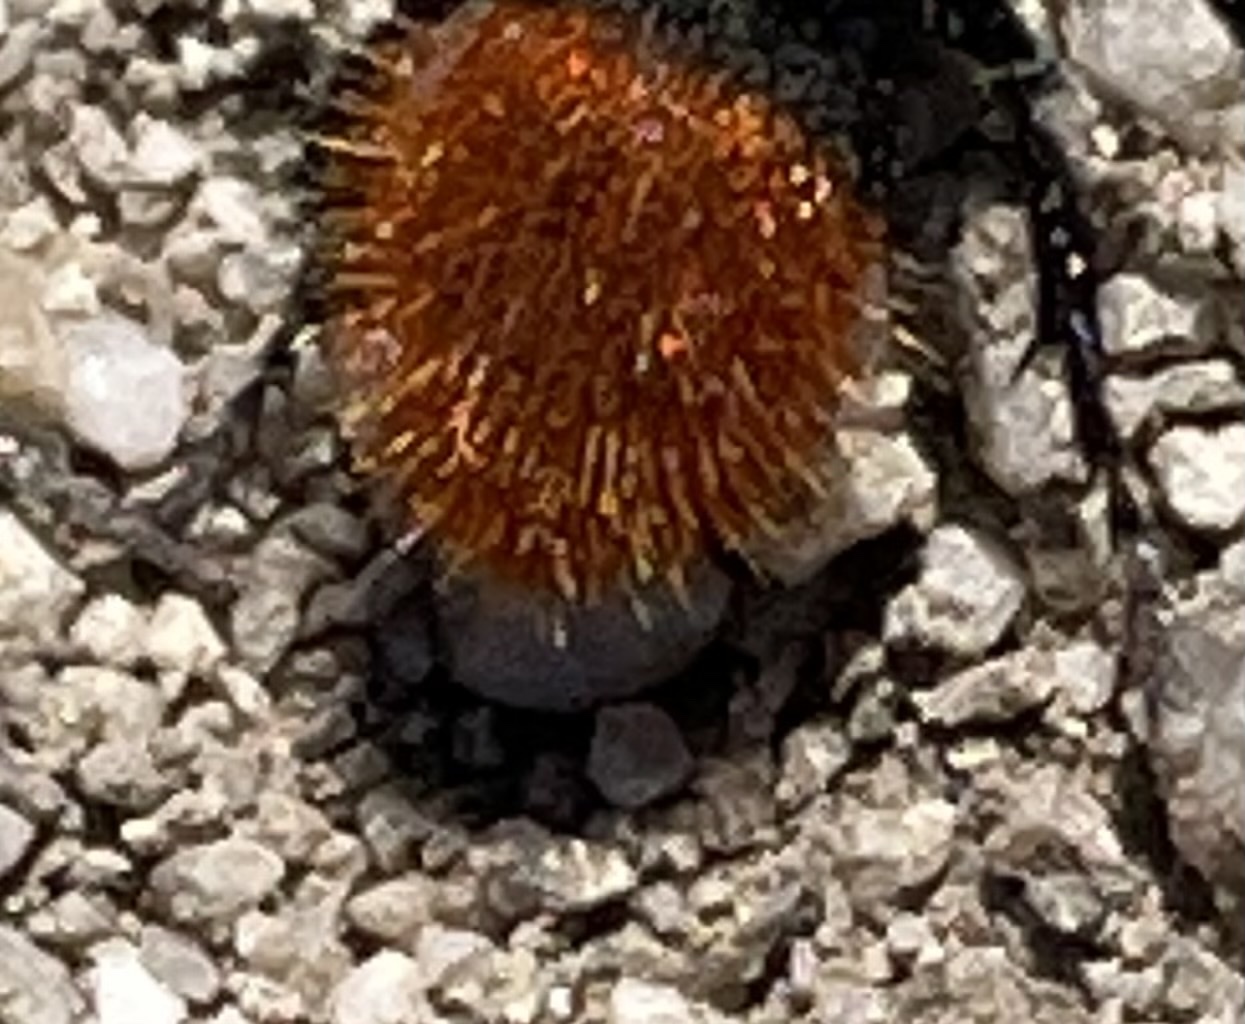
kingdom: Animalia
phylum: Arthropoda
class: Insecta
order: Hymenoptera
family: Mutillidae
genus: Dasymutilla
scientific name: Dasymutilla
